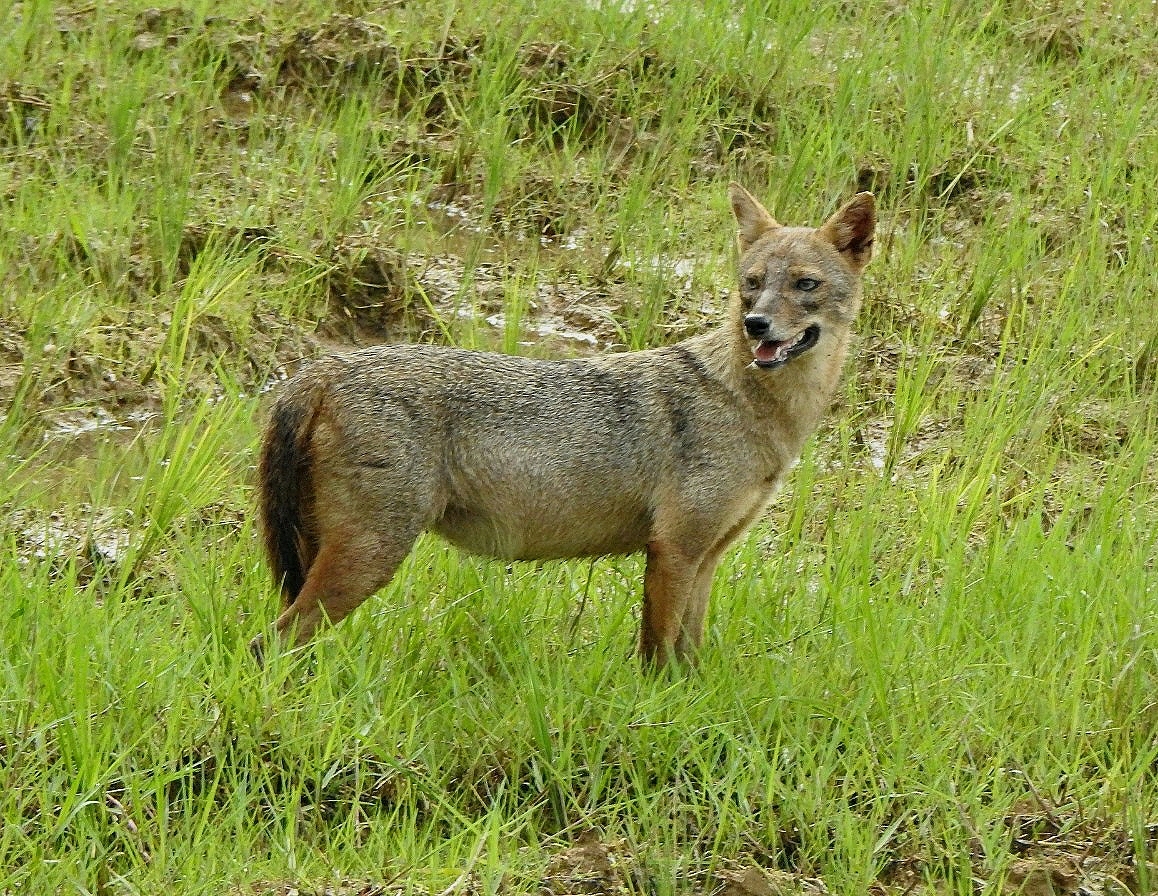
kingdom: Animalia
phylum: Chordata
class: Mammalia
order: Carnivora
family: Canidae
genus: Canis
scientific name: Canis aureus
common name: Golden jackal
